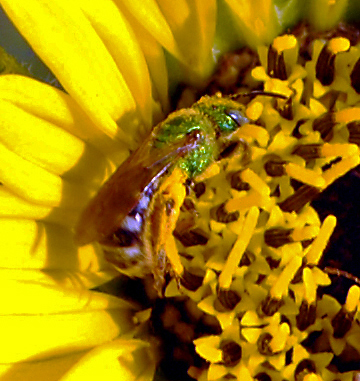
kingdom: Animalia
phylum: Arthropoda
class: Insecta
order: Hymenoptera
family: Halictidae
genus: Agapostemon
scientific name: Agapostemon virescens
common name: Bicolored striped sweat bee
